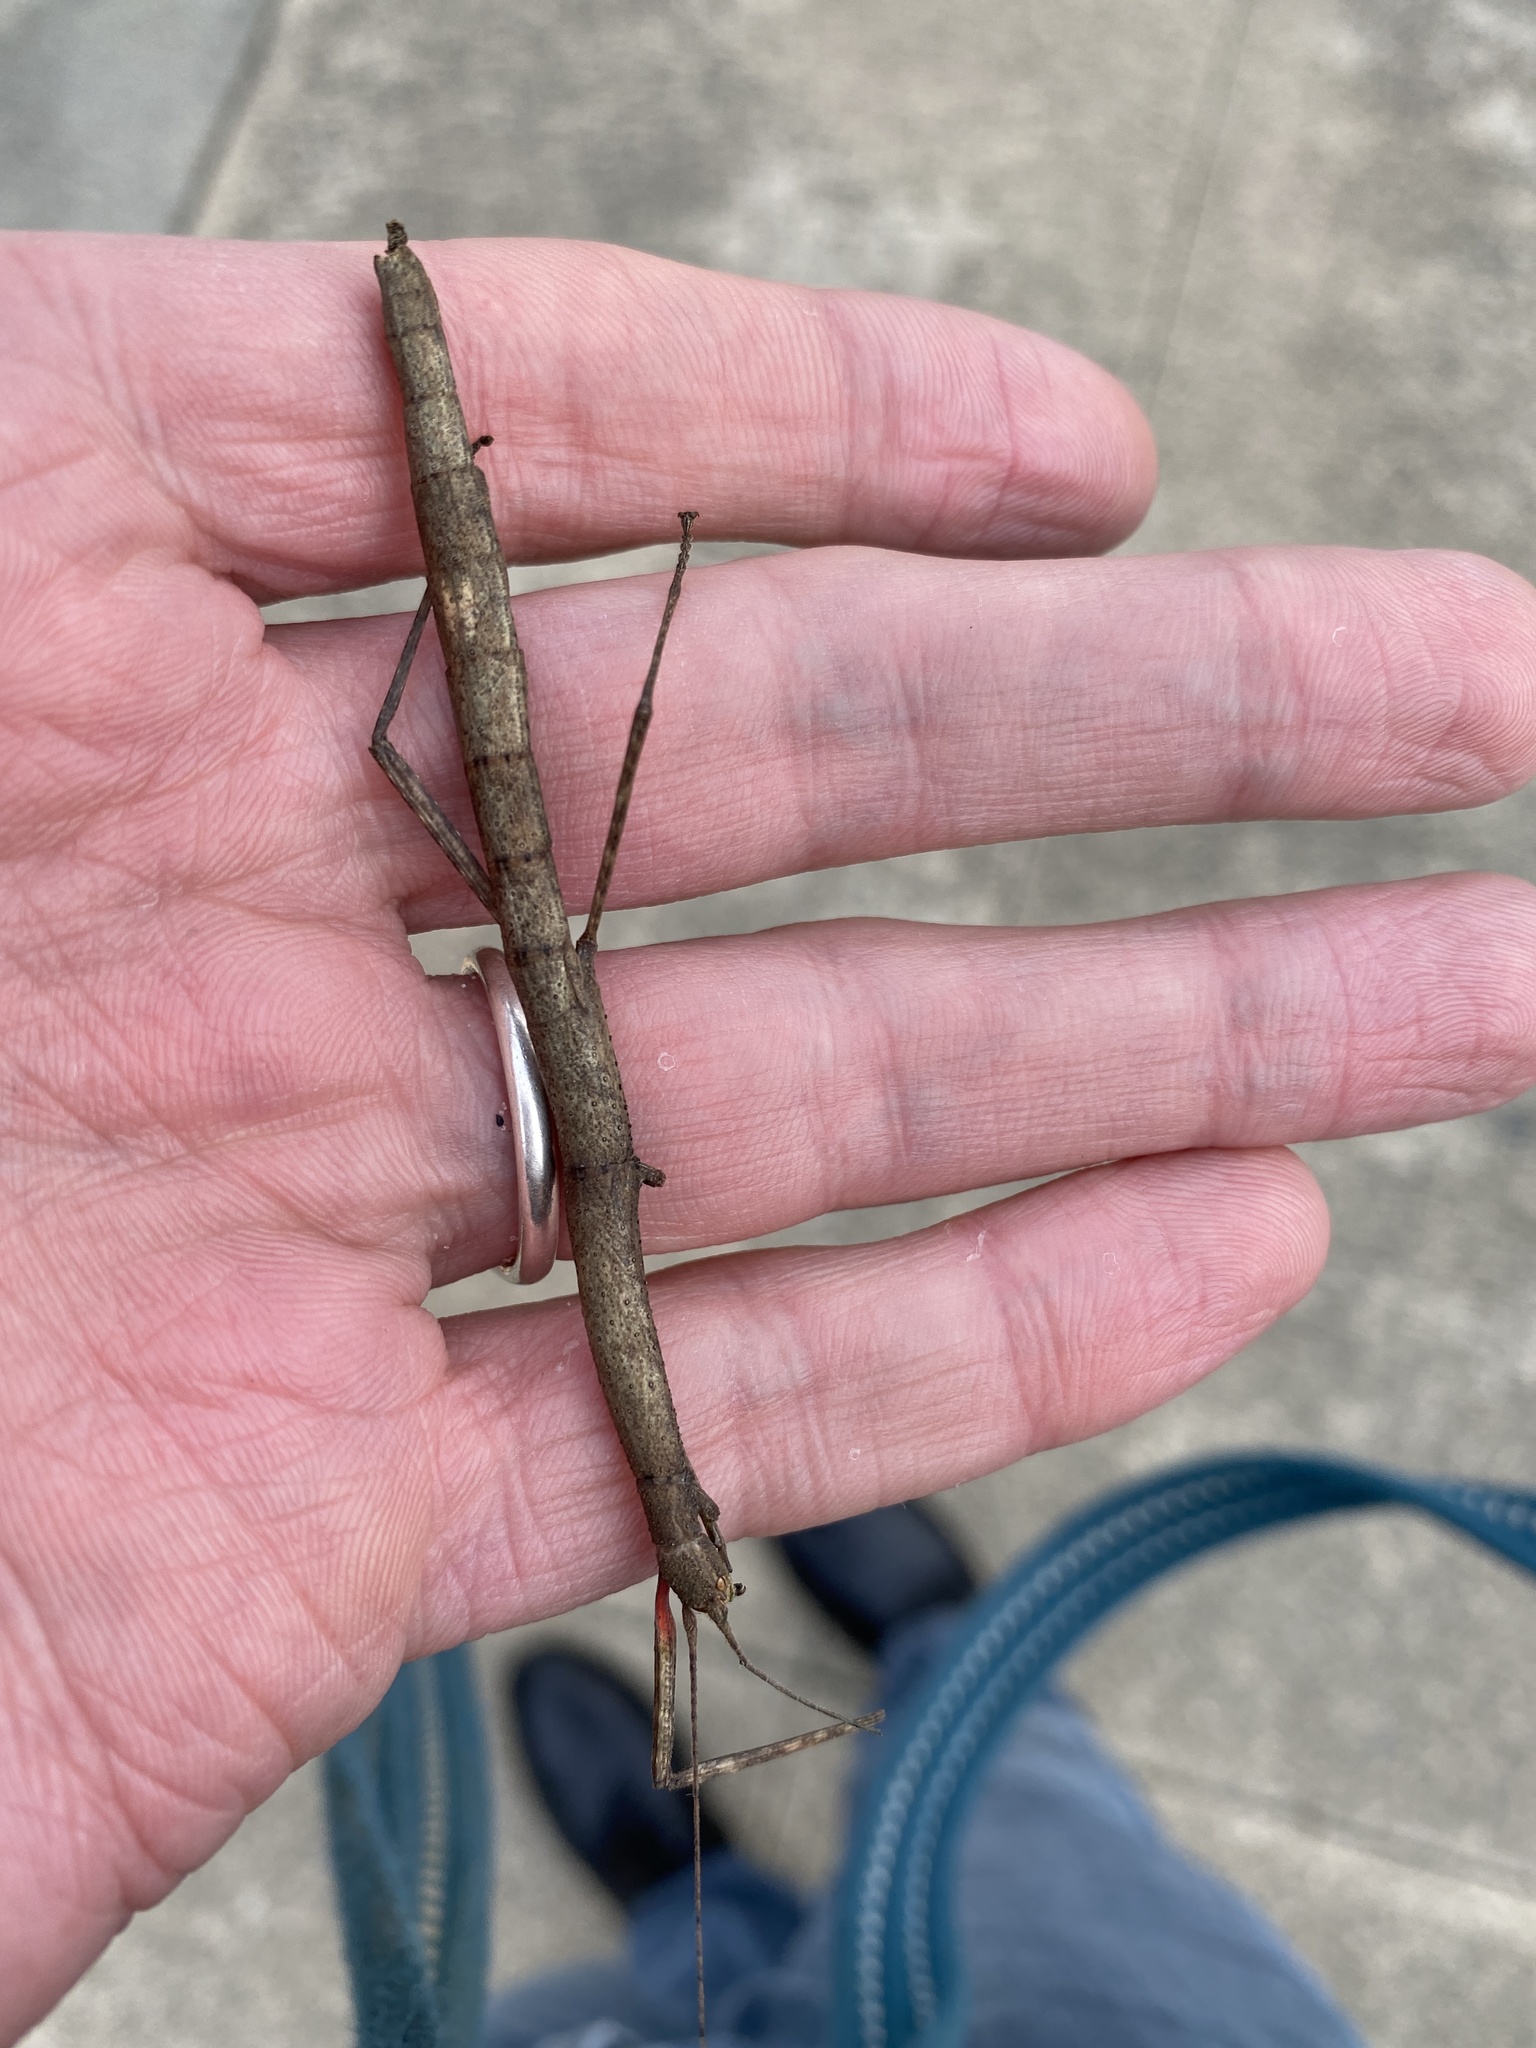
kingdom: Animalia
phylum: Arthropoda
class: Insecta
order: Phasmida
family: Lonchodidae
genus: Carausius
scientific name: Carausius morosus
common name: Indian stick insect
